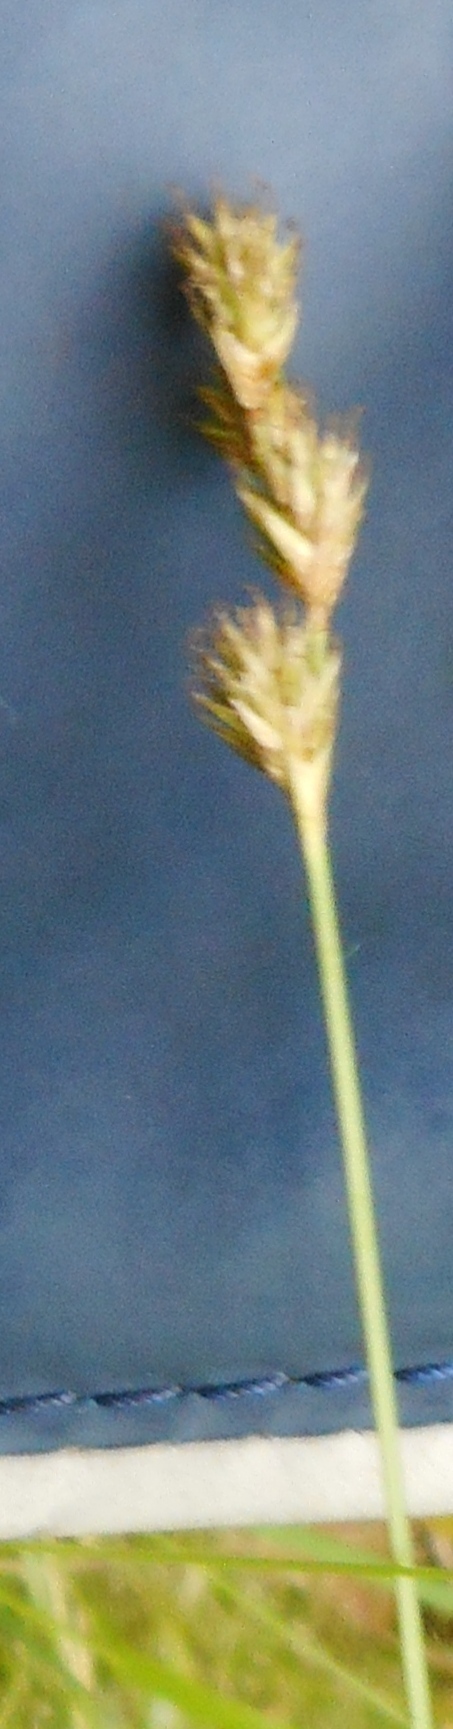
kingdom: Plantae
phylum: Tracheophyta
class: Liliopsida
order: Poales
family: Cyperaceae
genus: Carex
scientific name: Carex leporina
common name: Oval sedge
